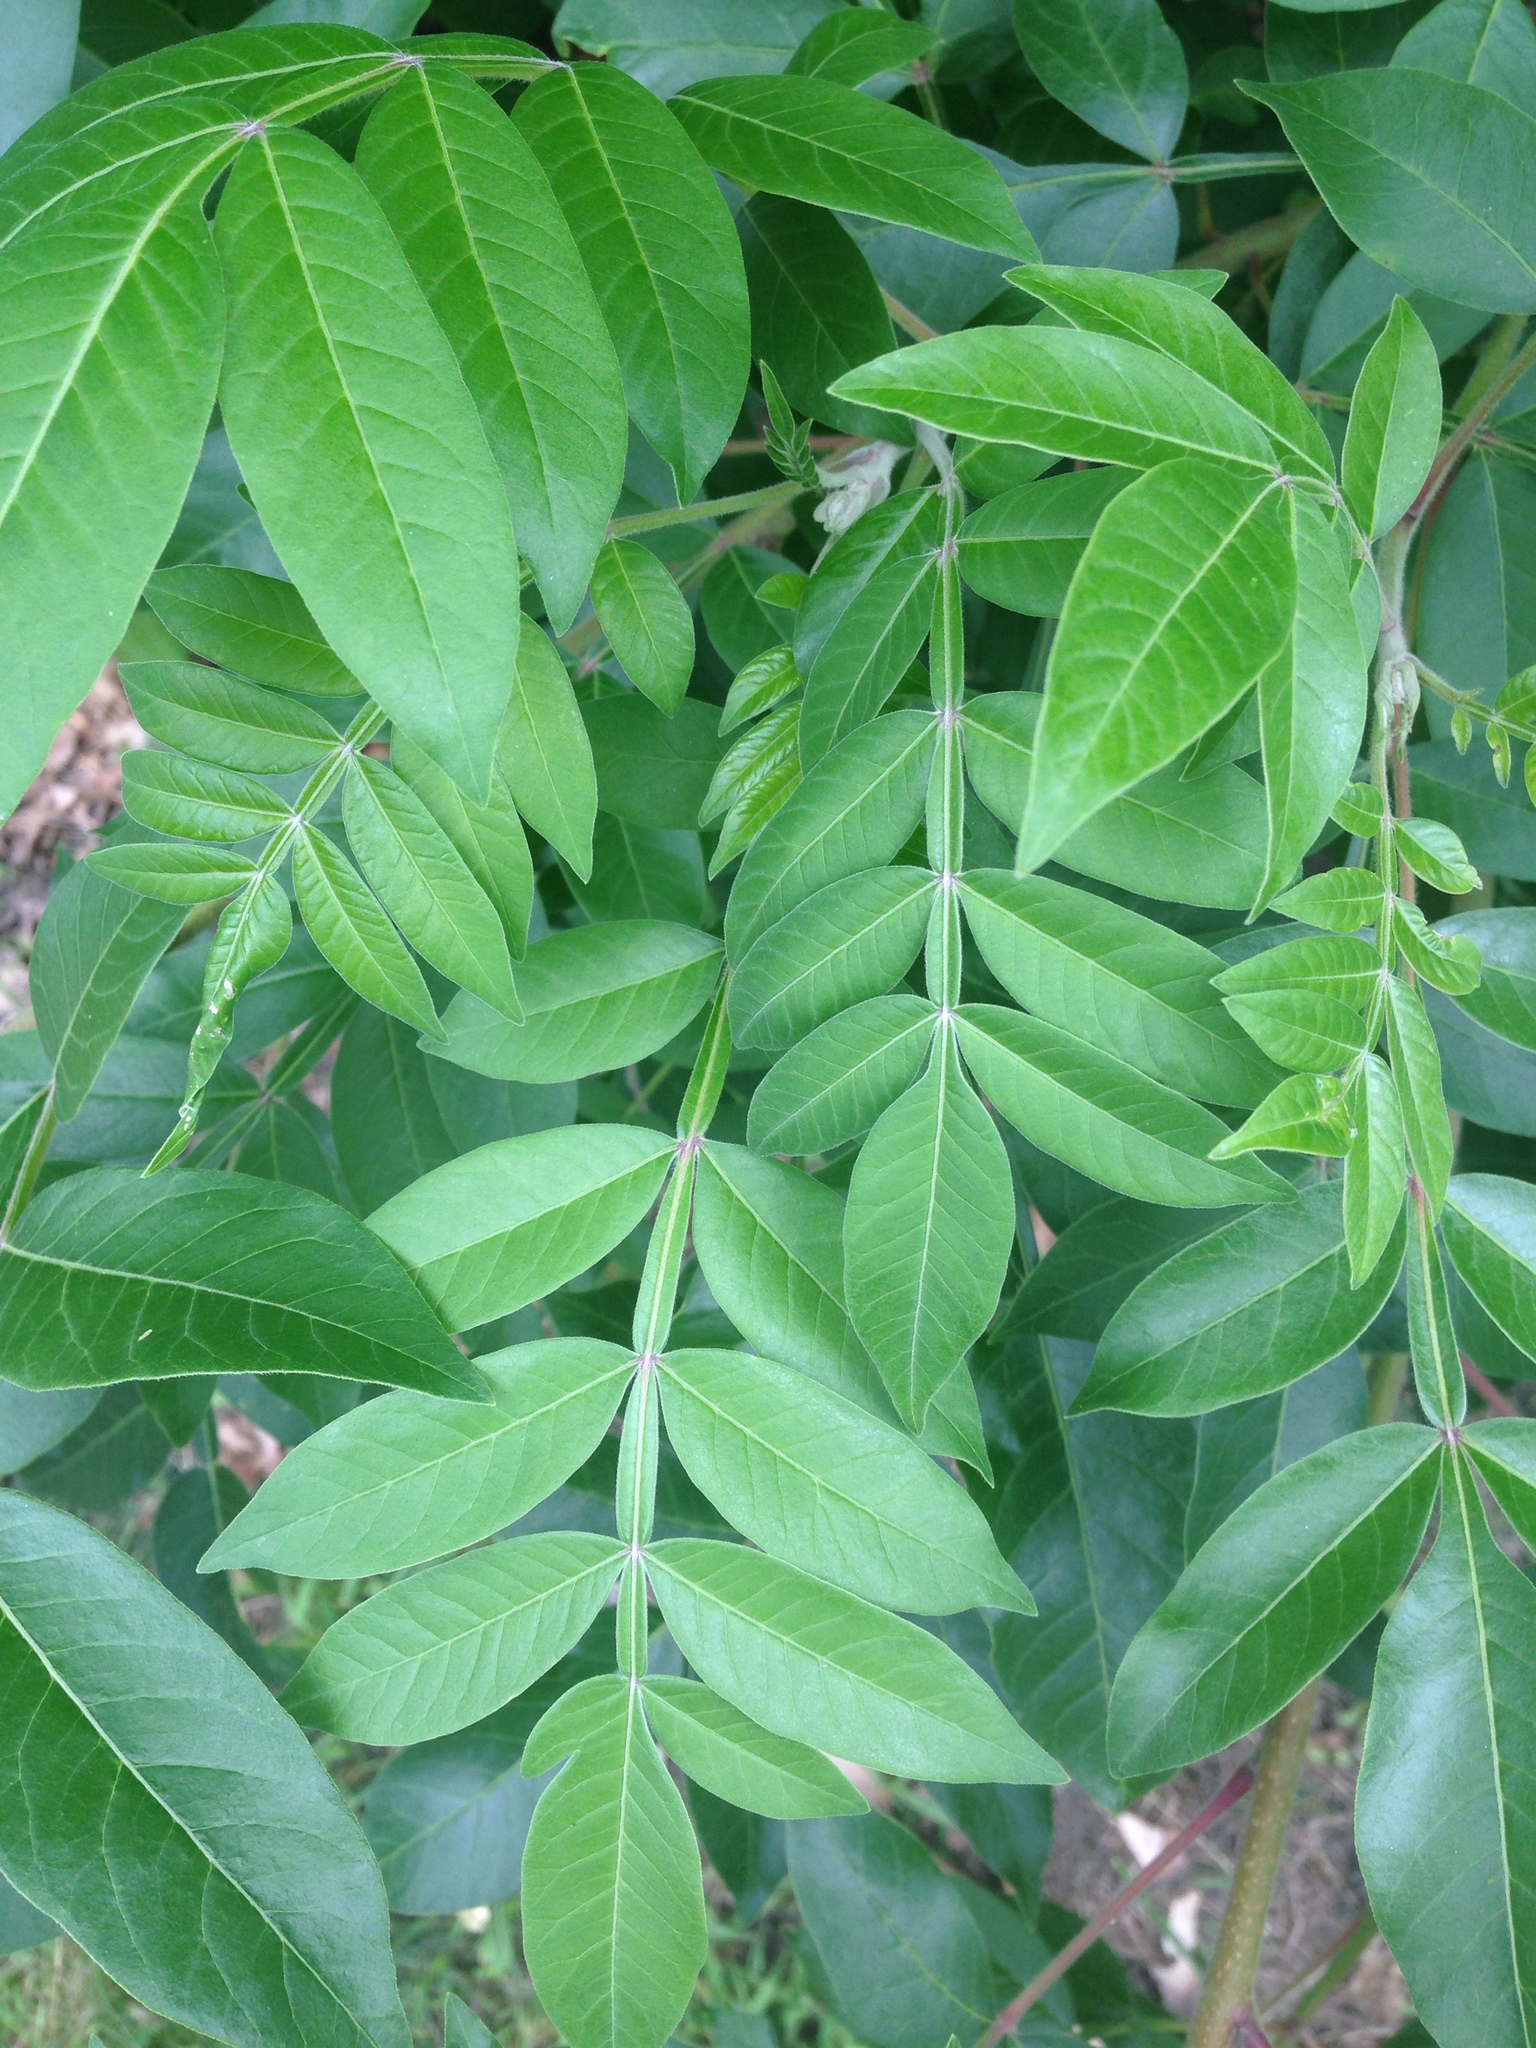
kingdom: Plantae
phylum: Tracheophyta
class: Magnoliopsida
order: Sapindales
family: Anacardiaceae
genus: Rhus
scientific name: Rhus copallina
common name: Shining sumac
